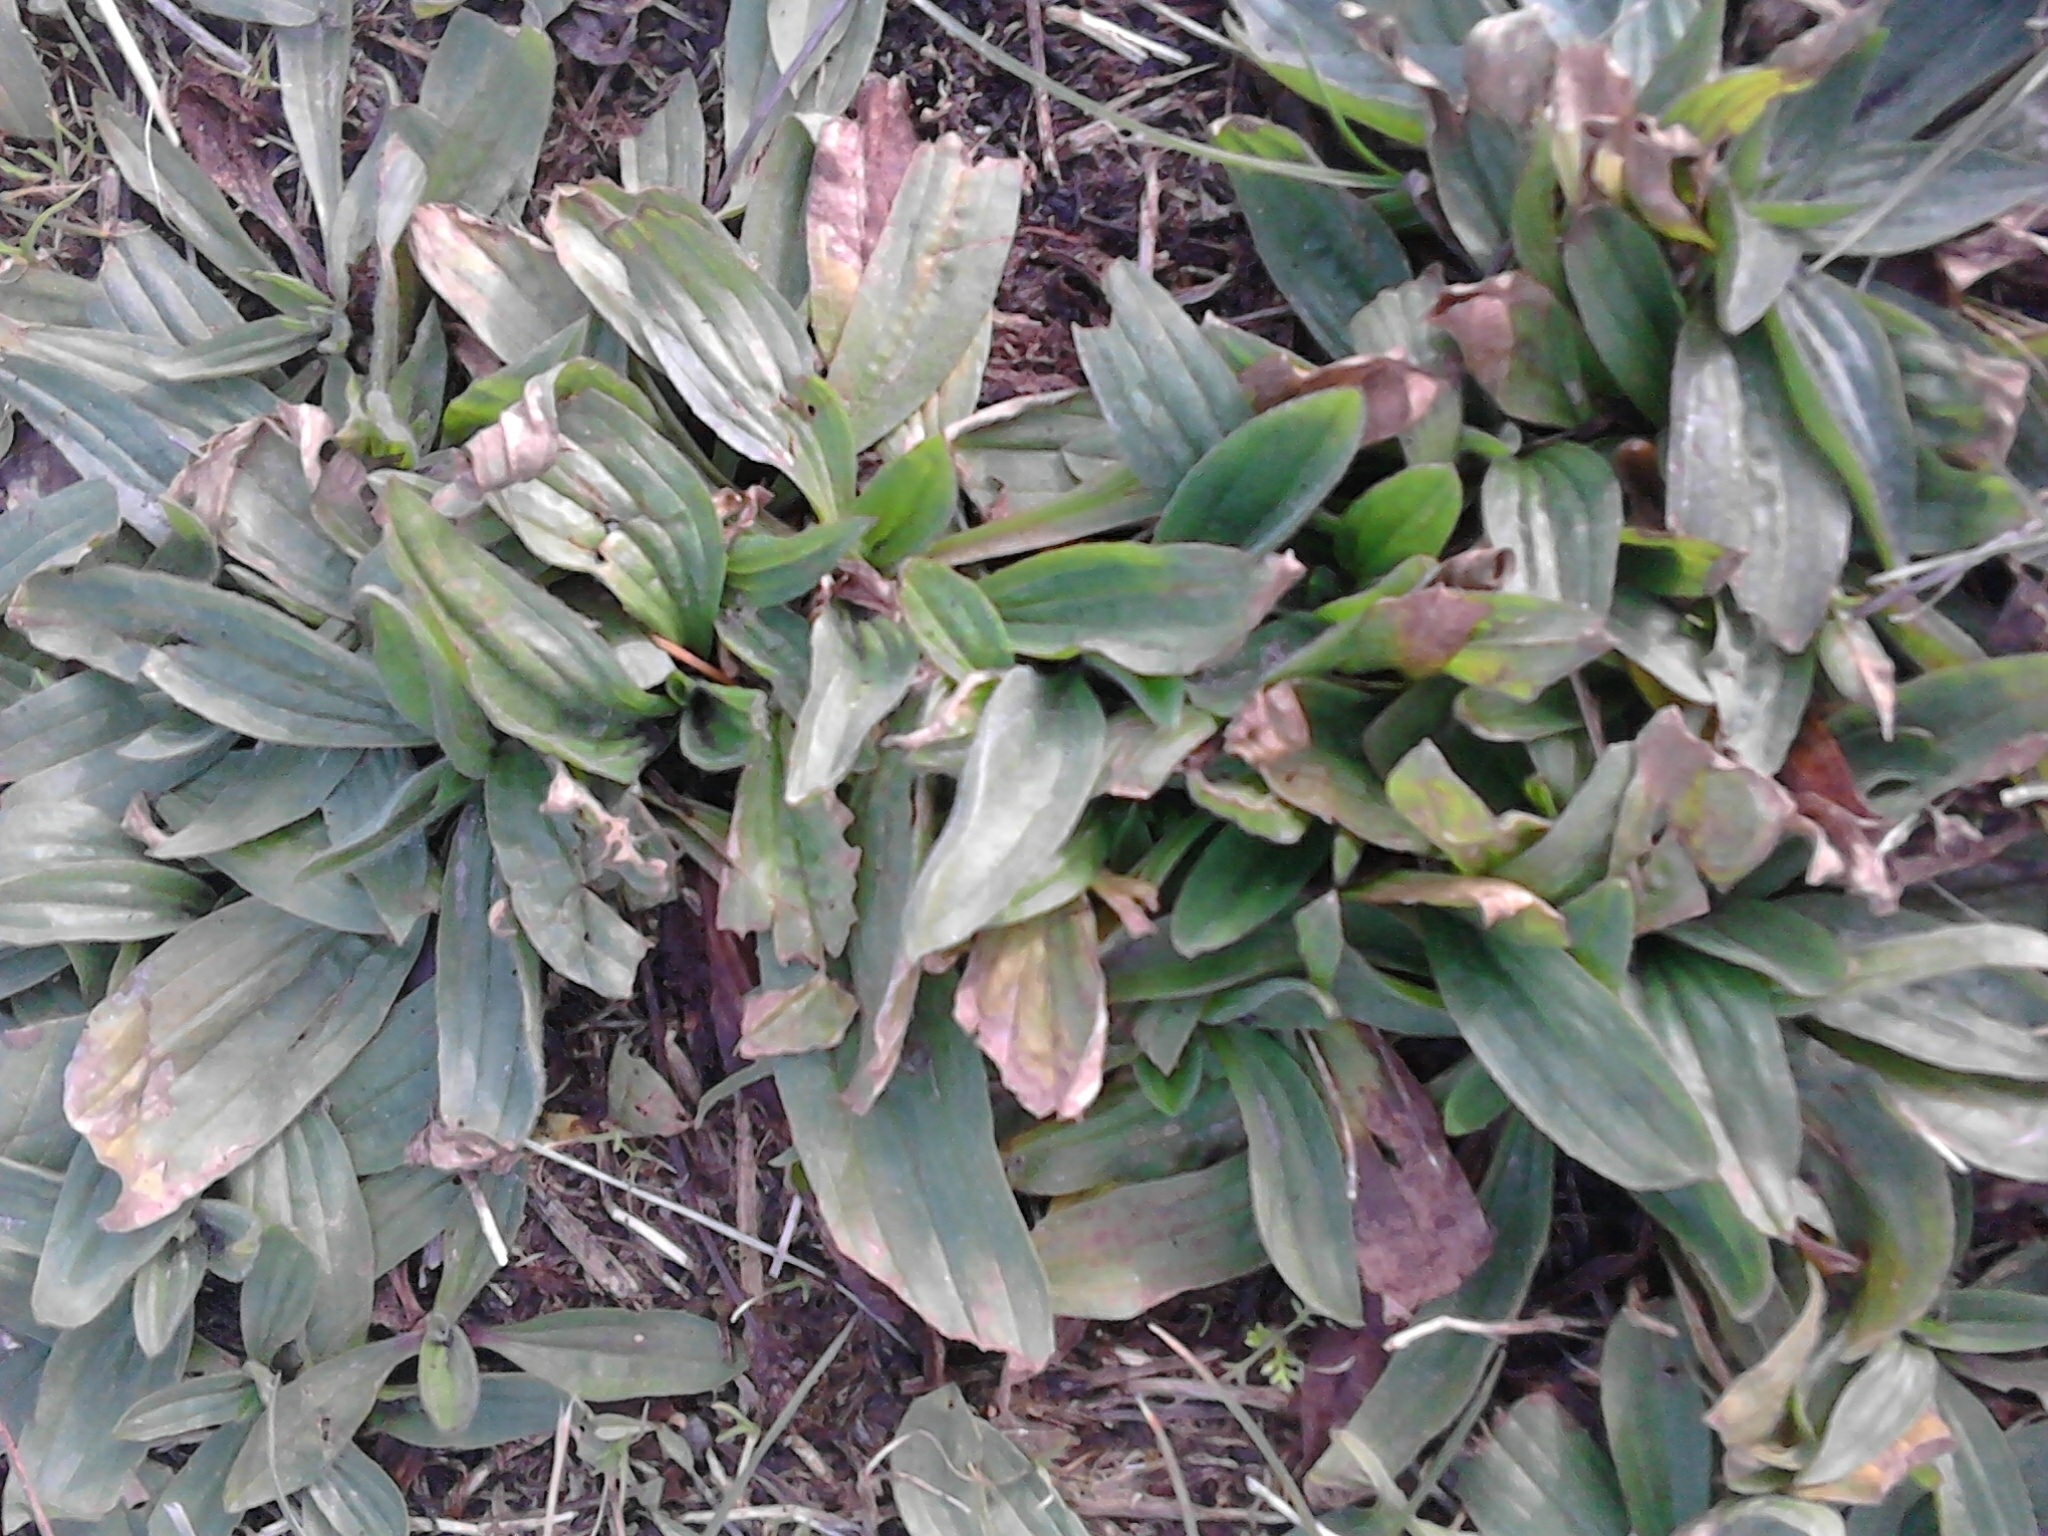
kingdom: Plantae
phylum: Tracheophyta
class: Magnoliopsida
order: Lamiales
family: Plantaginaceae
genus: Plantago
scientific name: Plantago lanceolata
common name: Ribwort plantain
